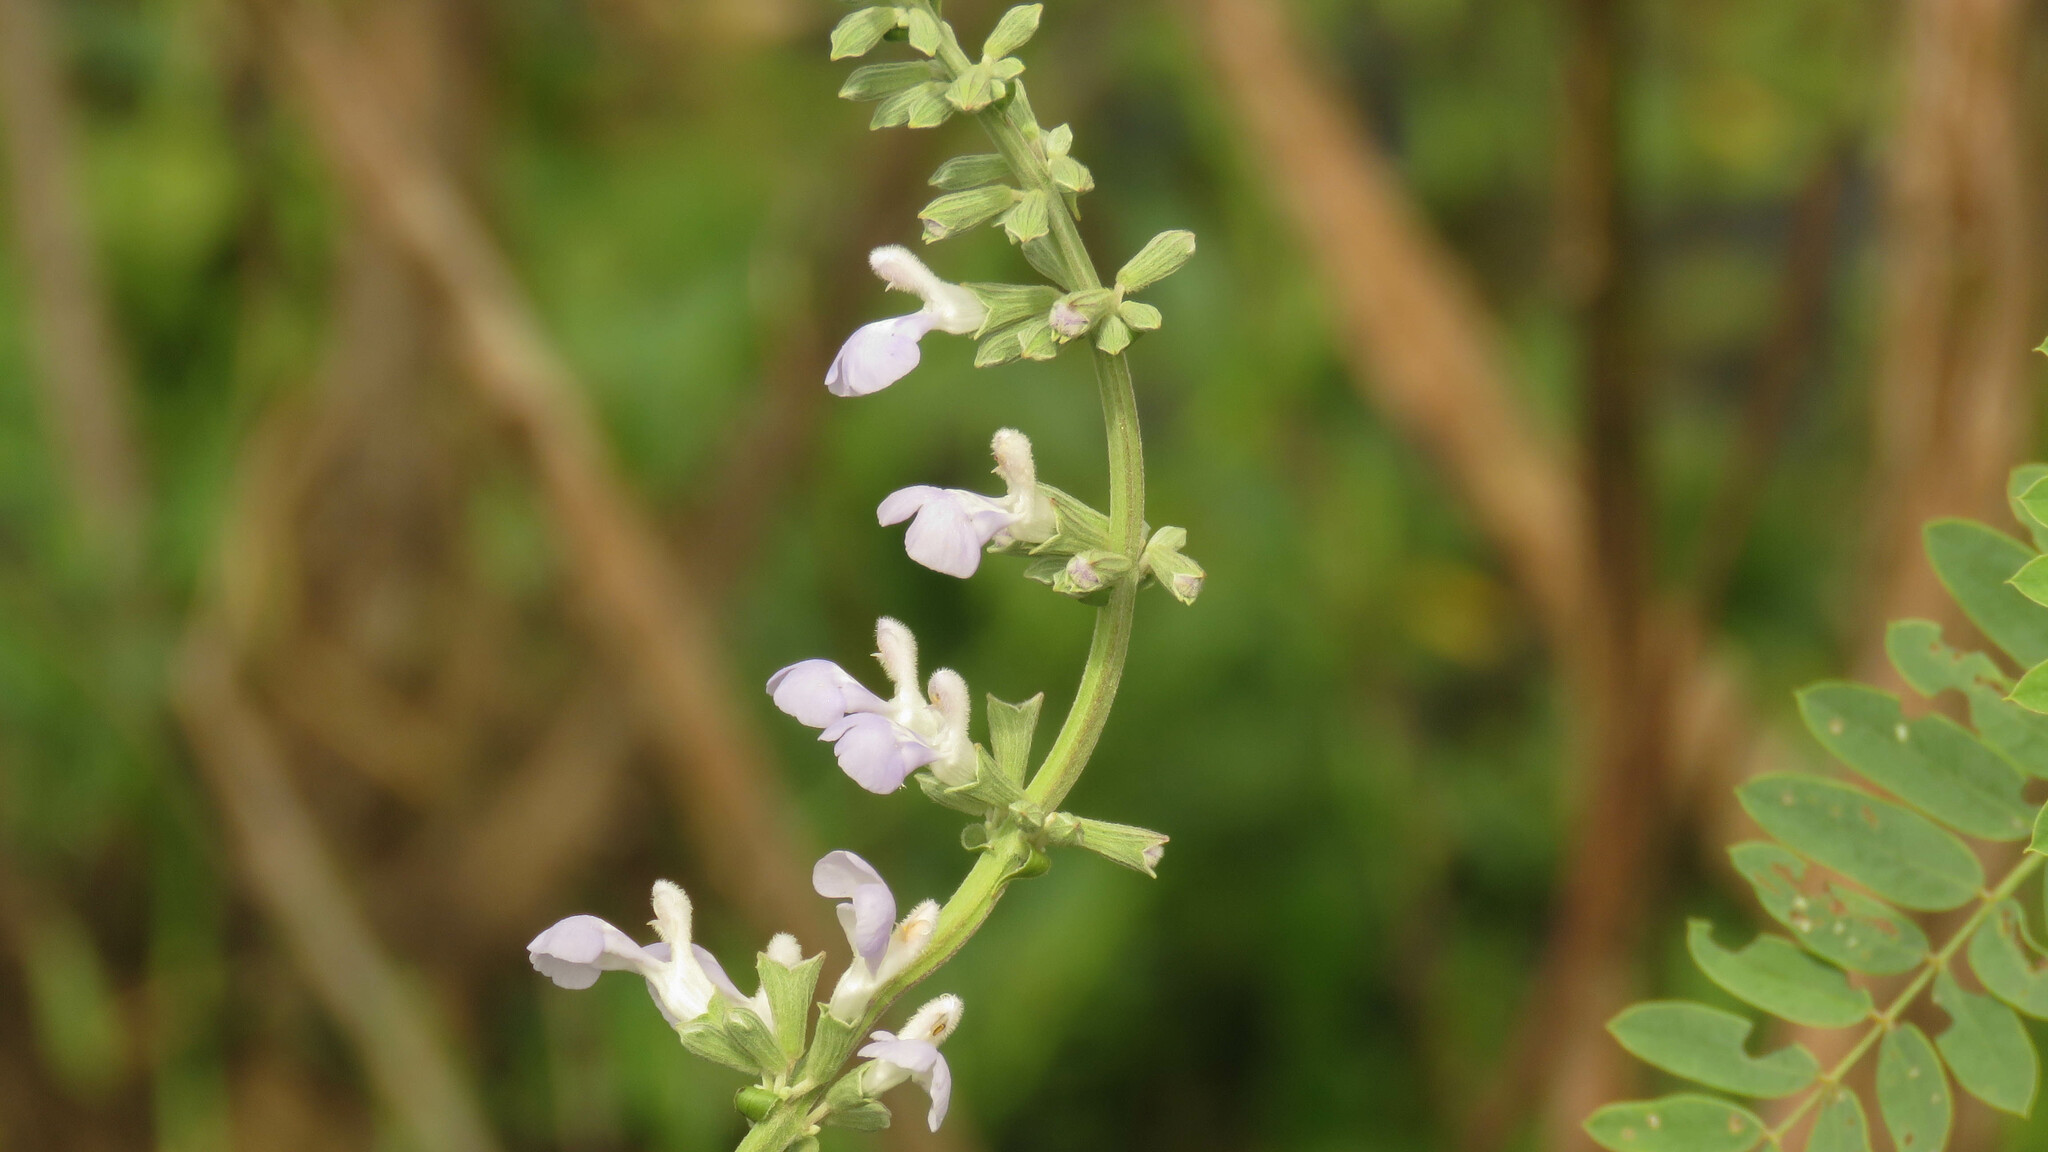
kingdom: Plantae
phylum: Tracheophyta
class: Magnoliopsida
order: Lamiales
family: Lamiaceae
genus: Salvia
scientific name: Salvia pallida
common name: Pale sage
